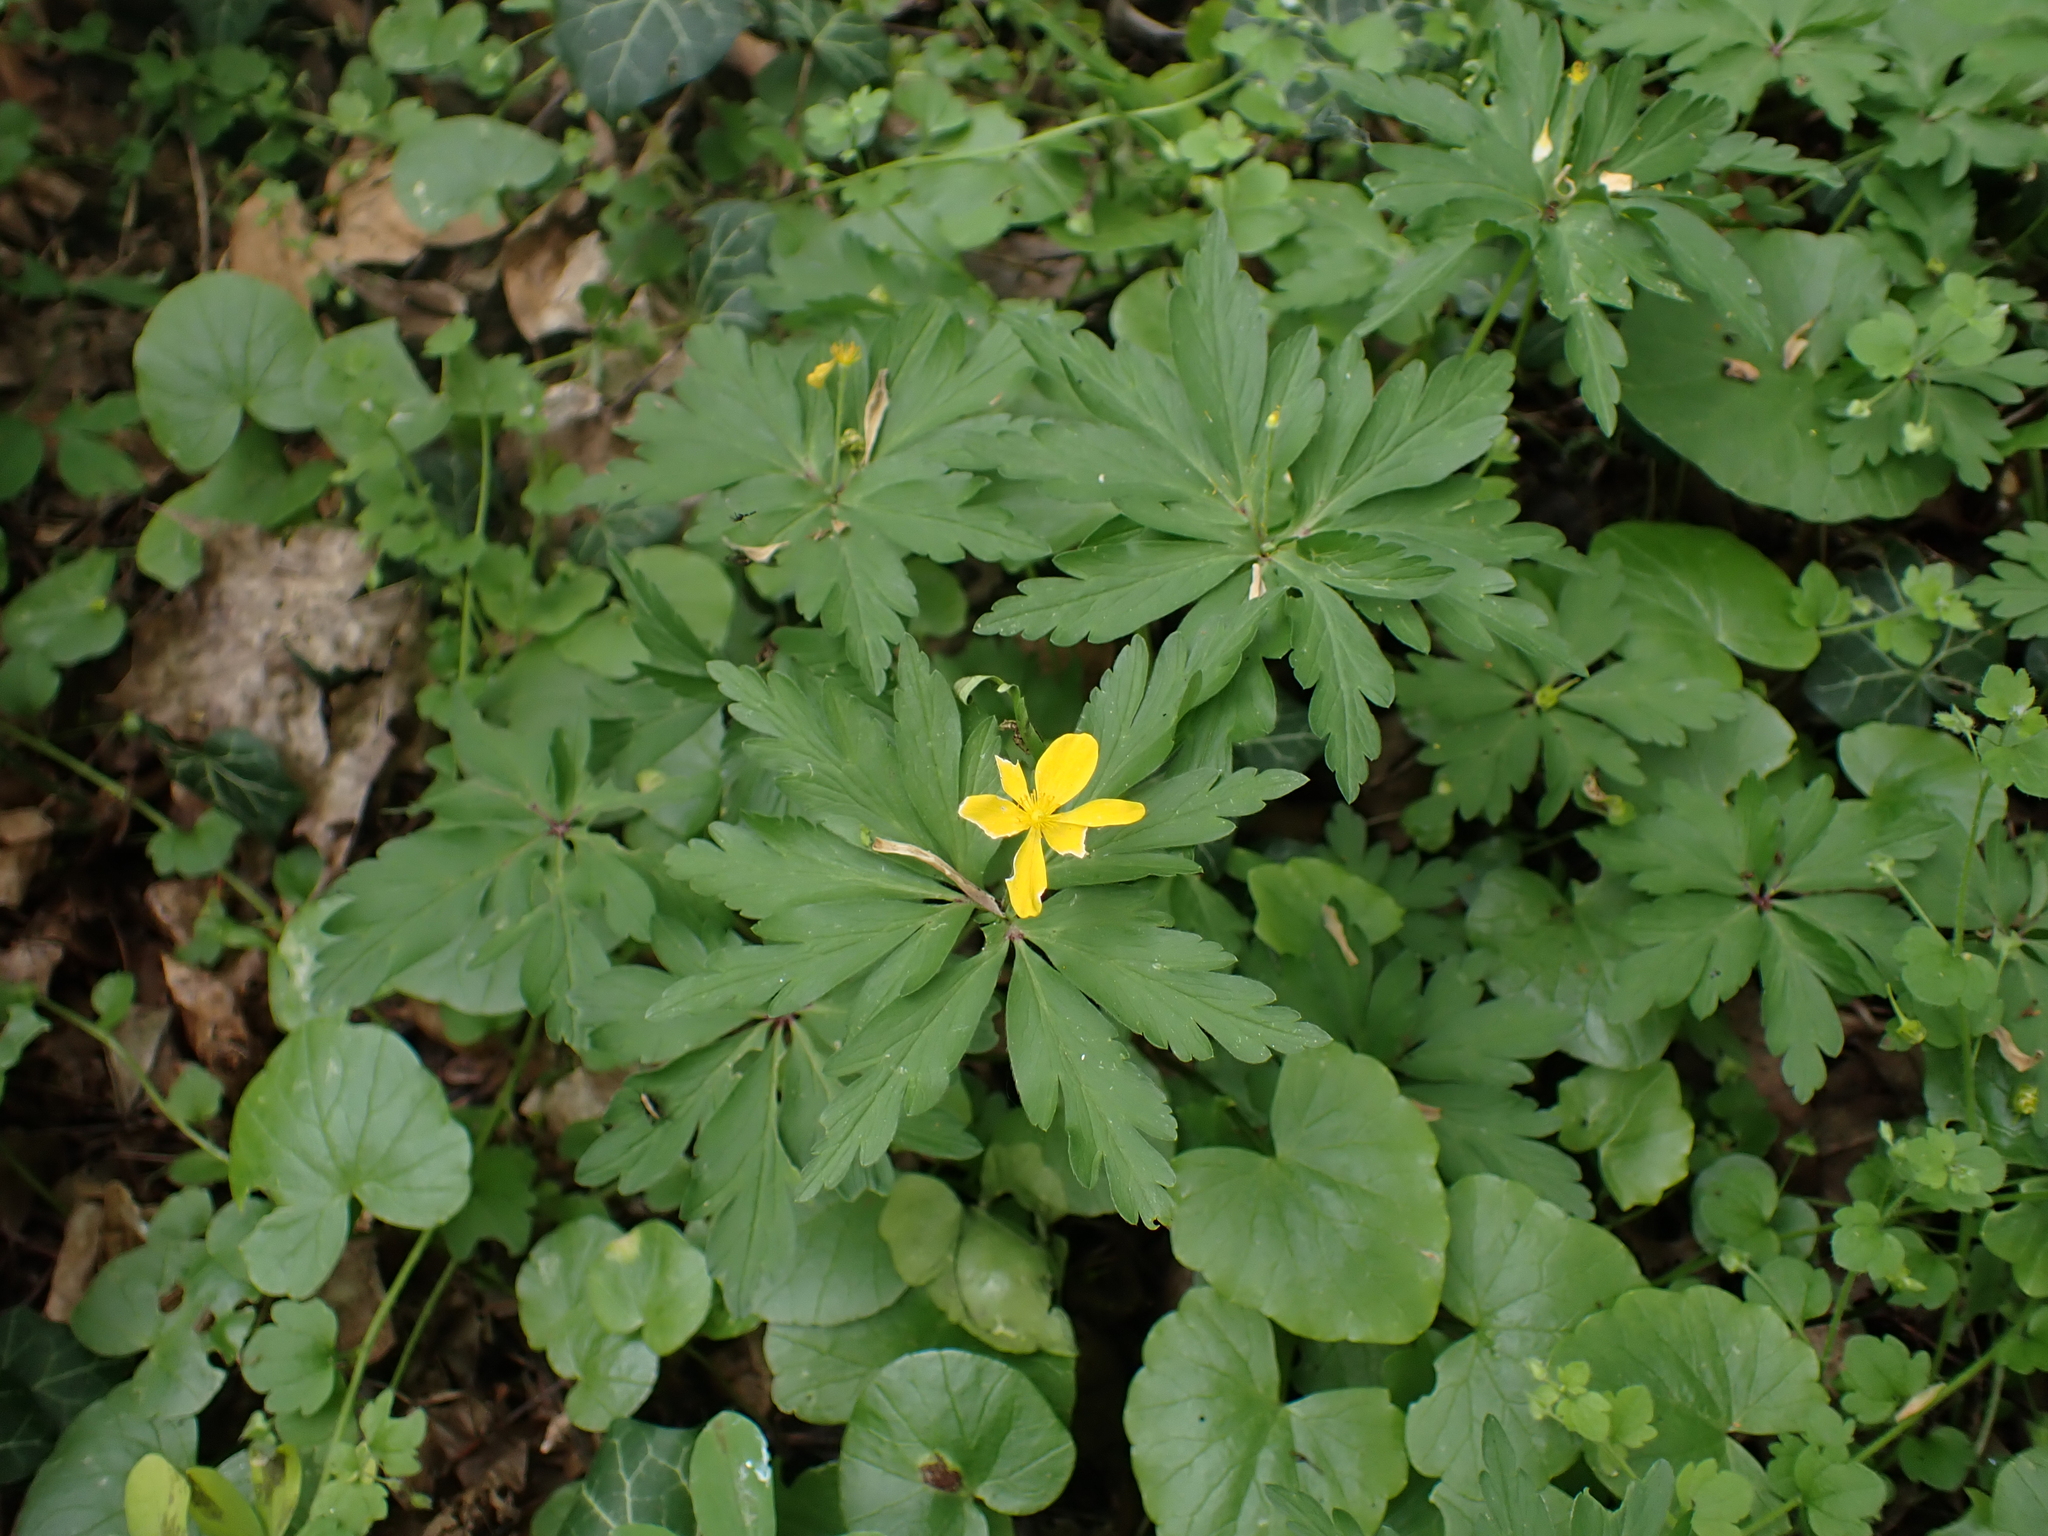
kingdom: Plantae
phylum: Tracheophyta
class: Magnoliopsida
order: Ranunculales
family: Ranunculaceae
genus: Anemone
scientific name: Anemone ranunculoides
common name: Yellow anemone
